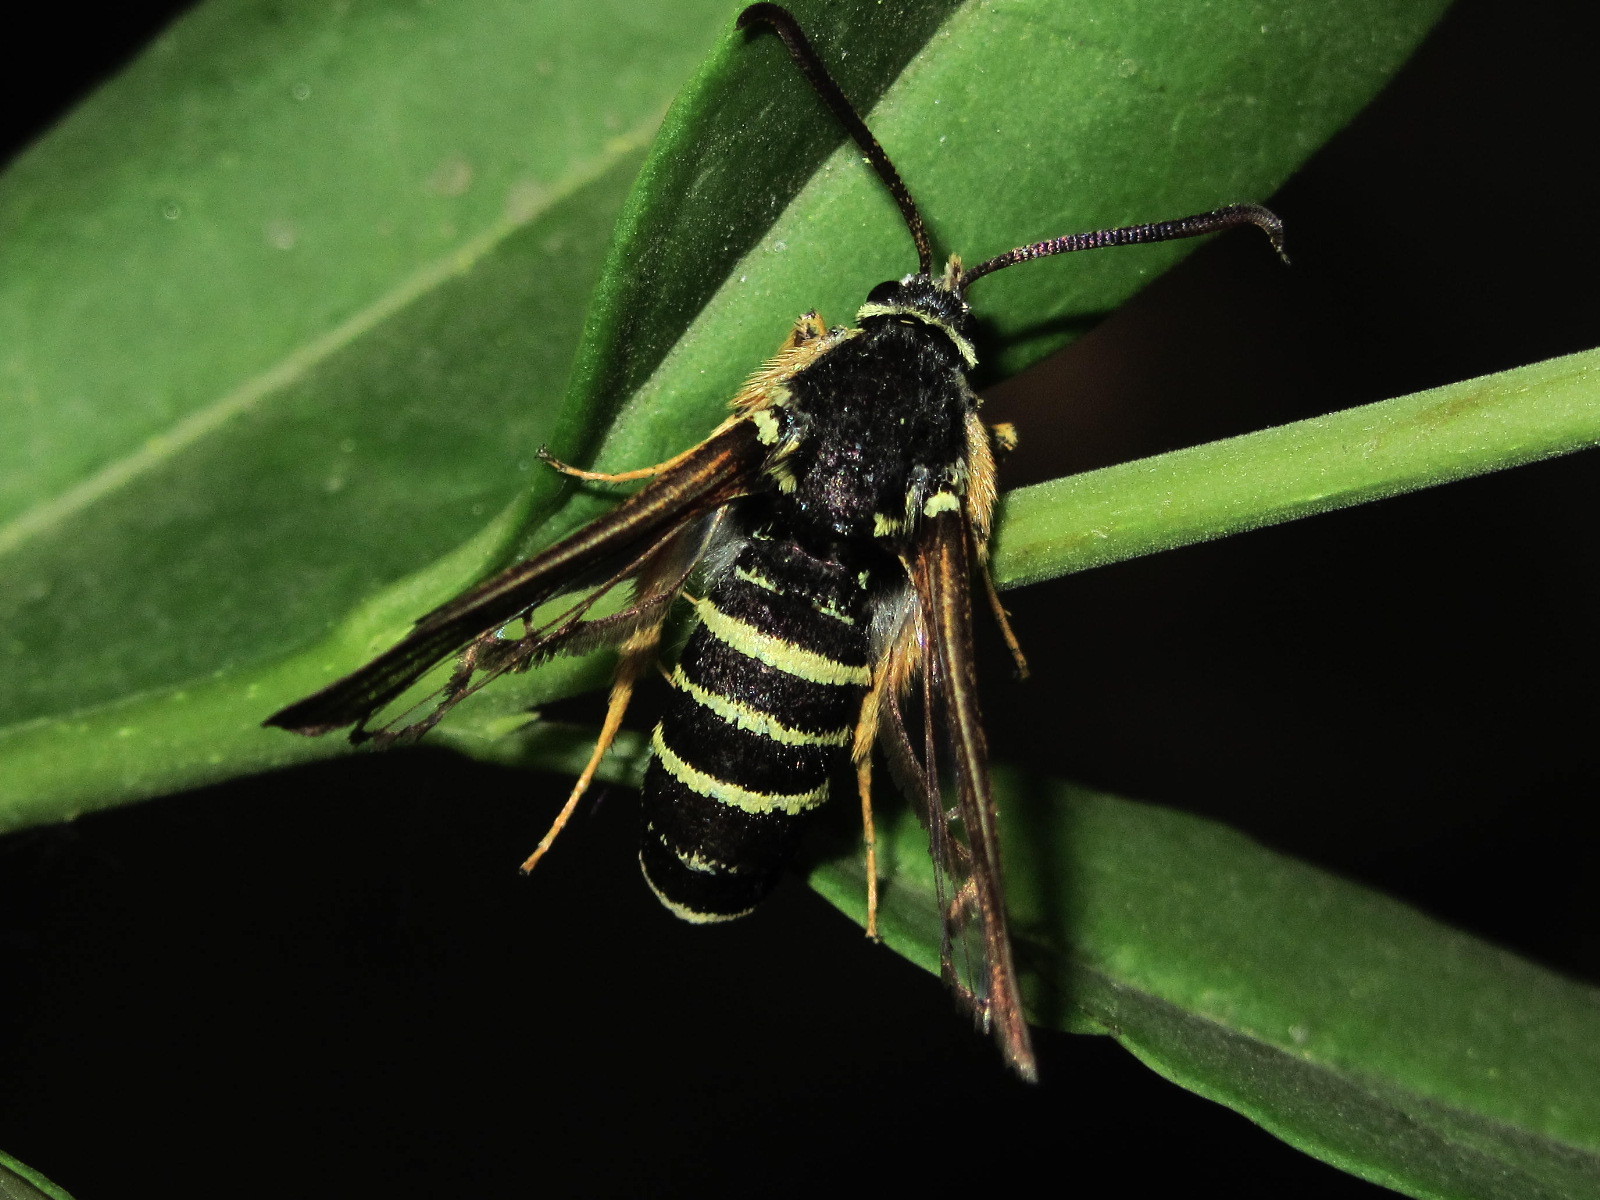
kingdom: Animalia
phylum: Arthropoda
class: Insecta
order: Lepidoptera
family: Sesiidae
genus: Paranthrene
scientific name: Paranthrene tabaniformis
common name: Dusky clearwing
